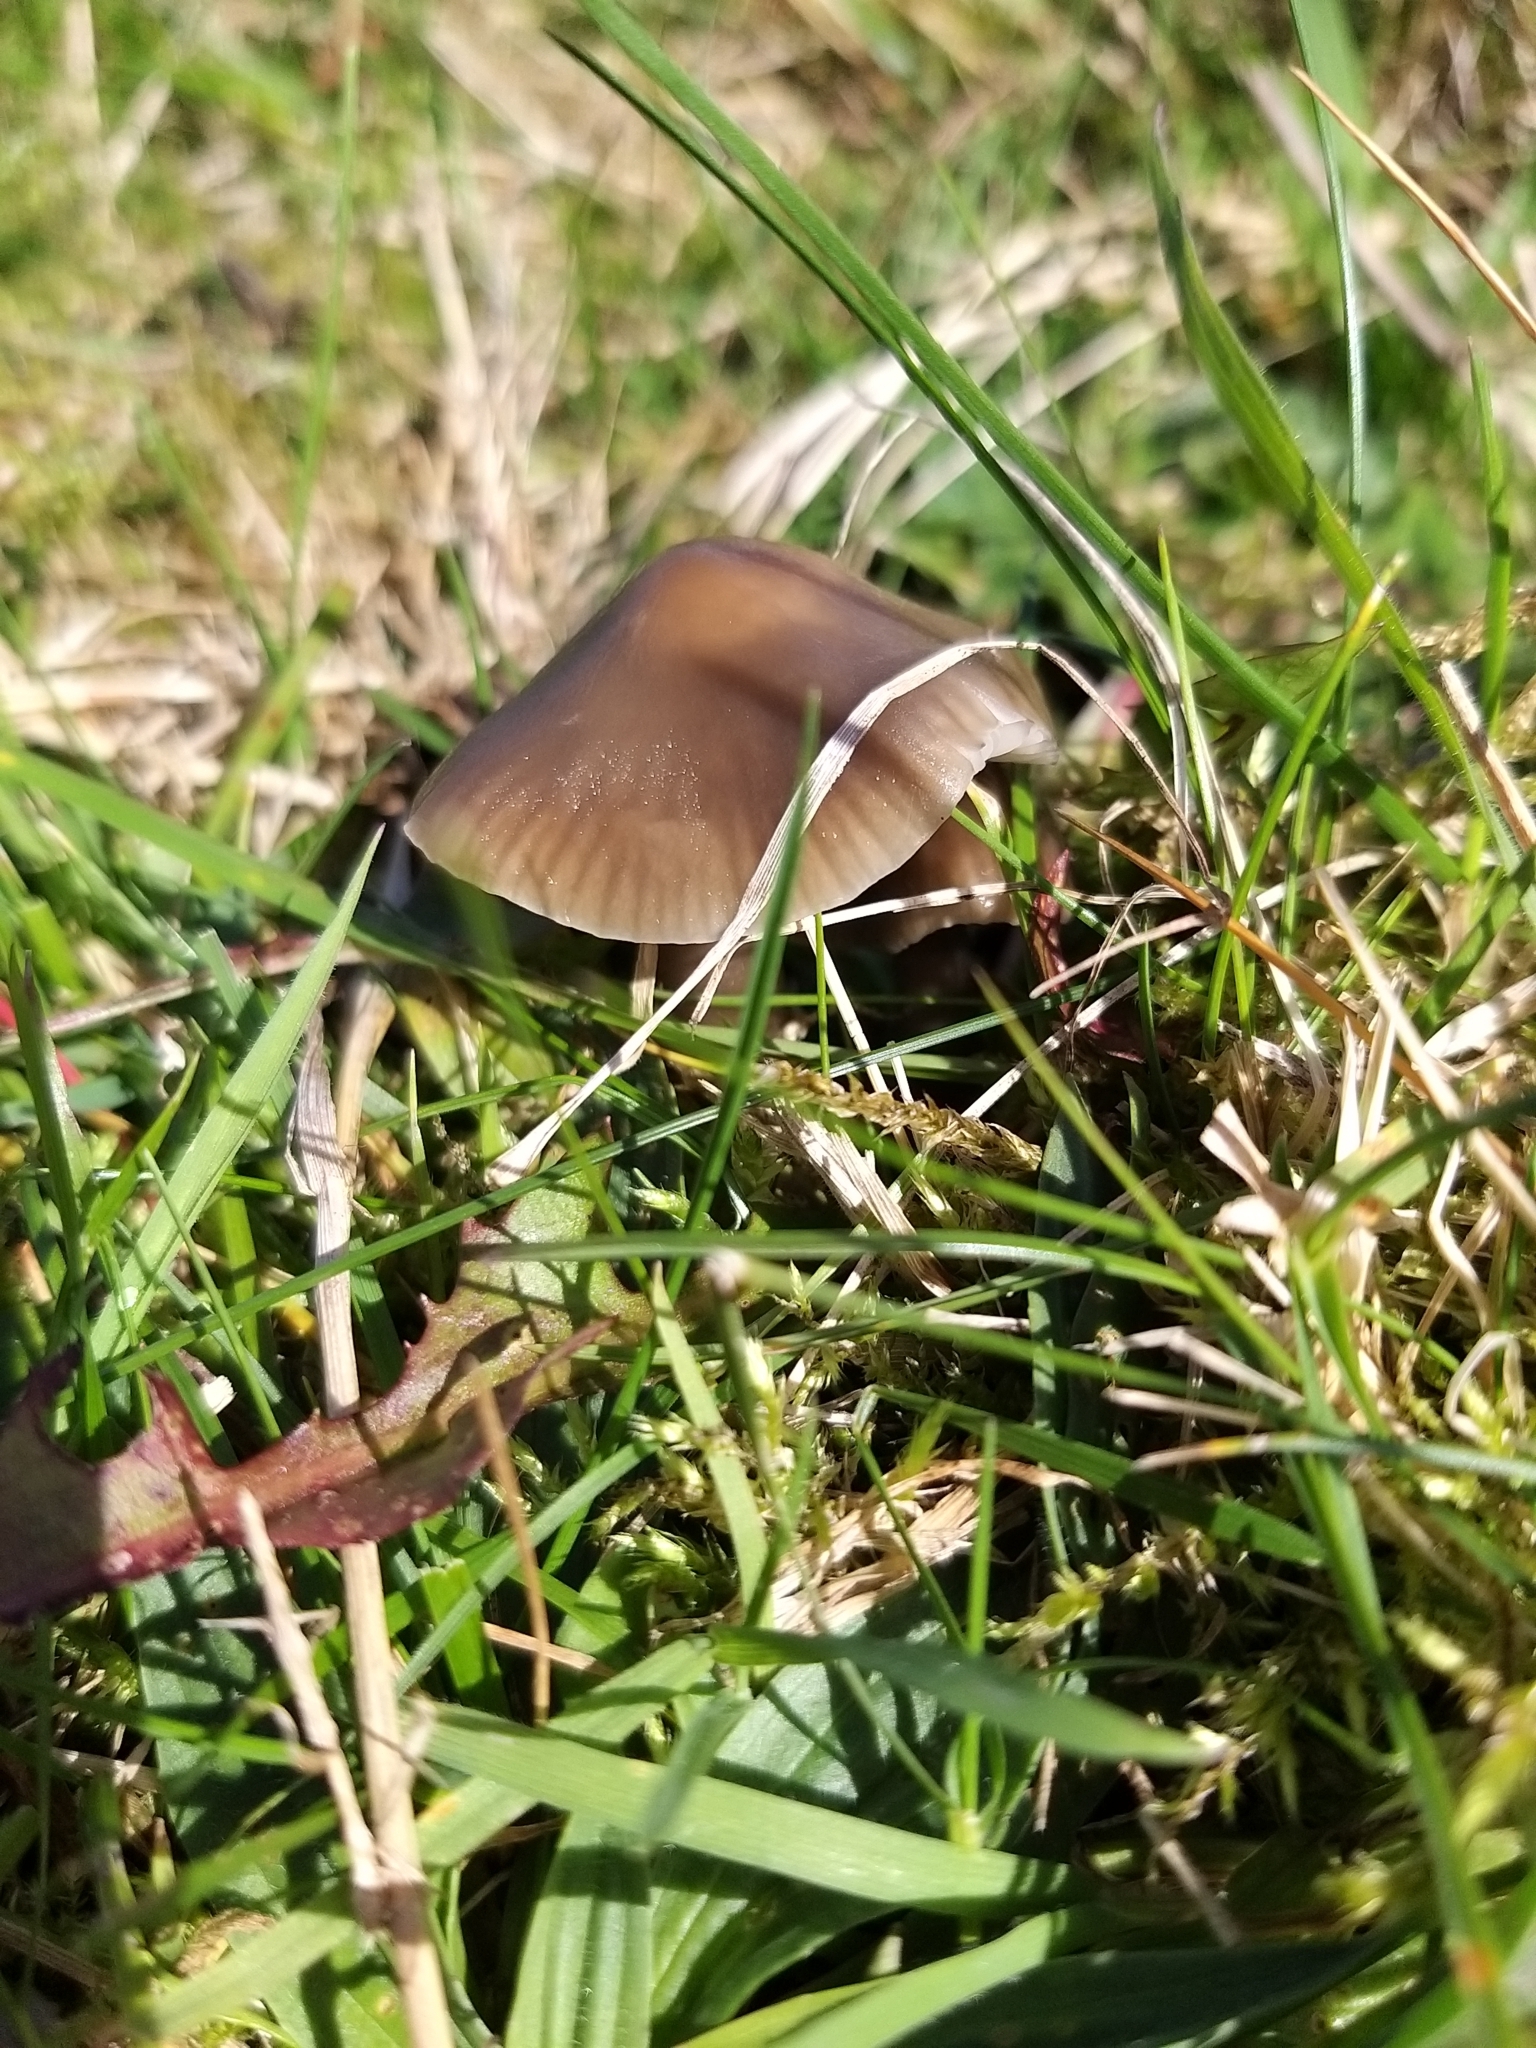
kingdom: Fungi
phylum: Basidiomycota
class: Agaricomycetes
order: Agaricales
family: Hygrophoraceae
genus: Gliophorus
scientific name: Gliophorus irrigatus
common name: Slimy waxcap
